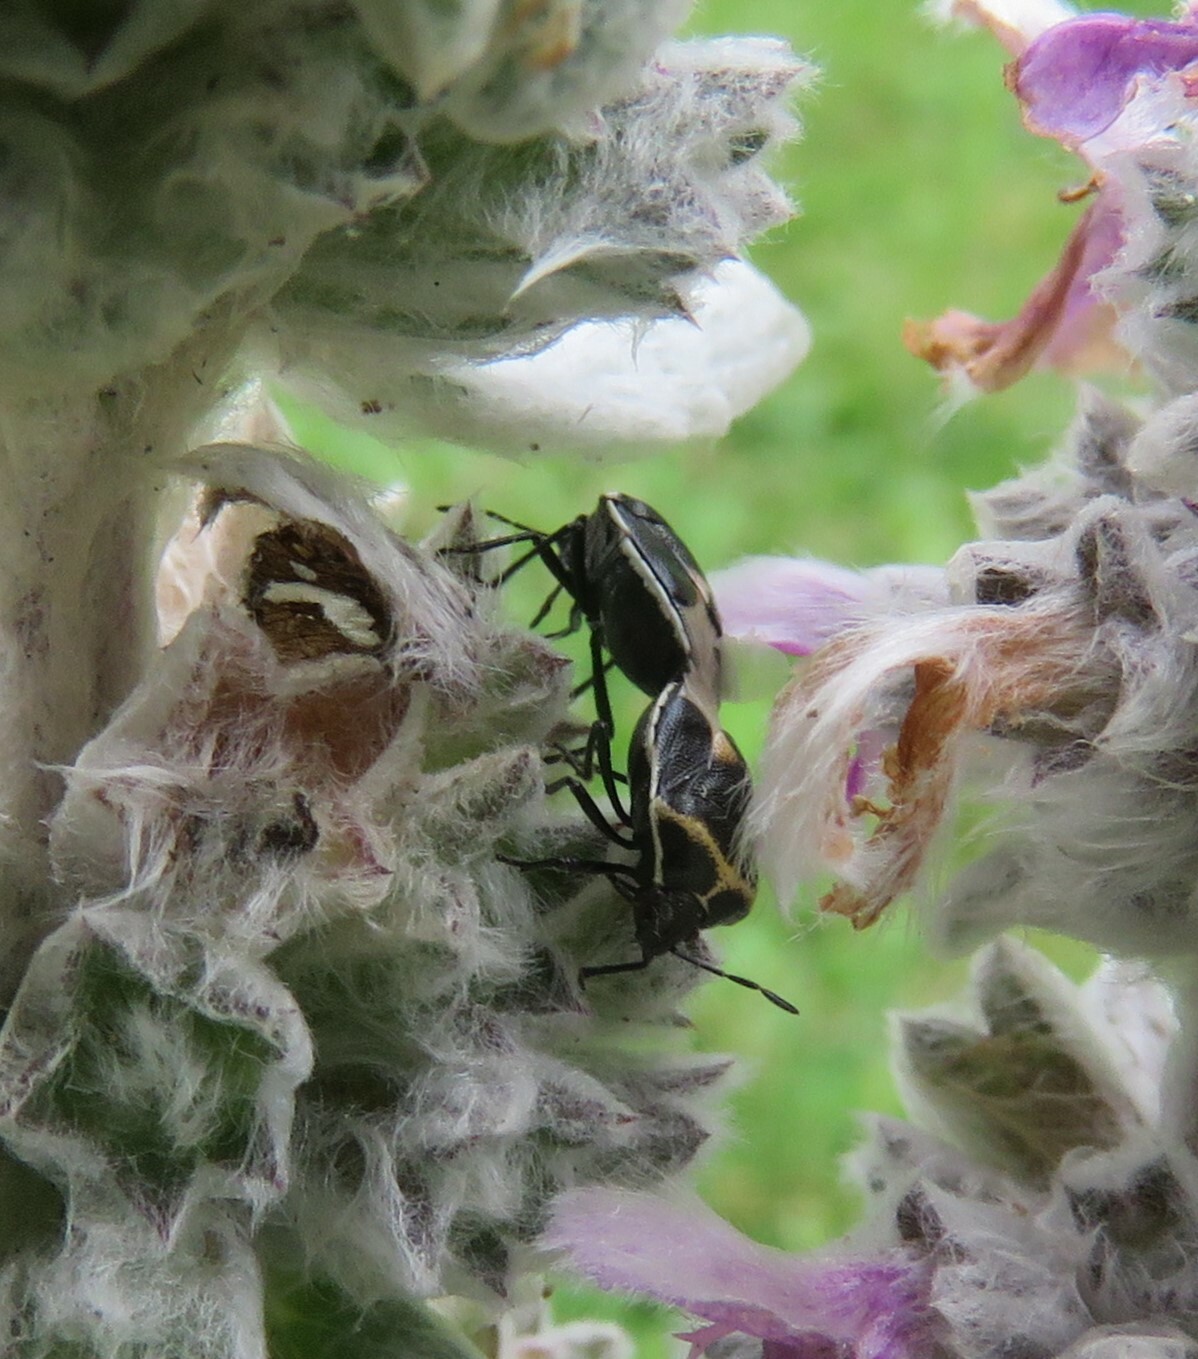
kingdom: Animalia
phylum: Arthropoda
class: Insecta
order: Hemiptera
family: Pentatomidae
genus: Cosmopepla
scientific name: Cosmopepla lintneriana
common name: Twice-stabbed stink bug
